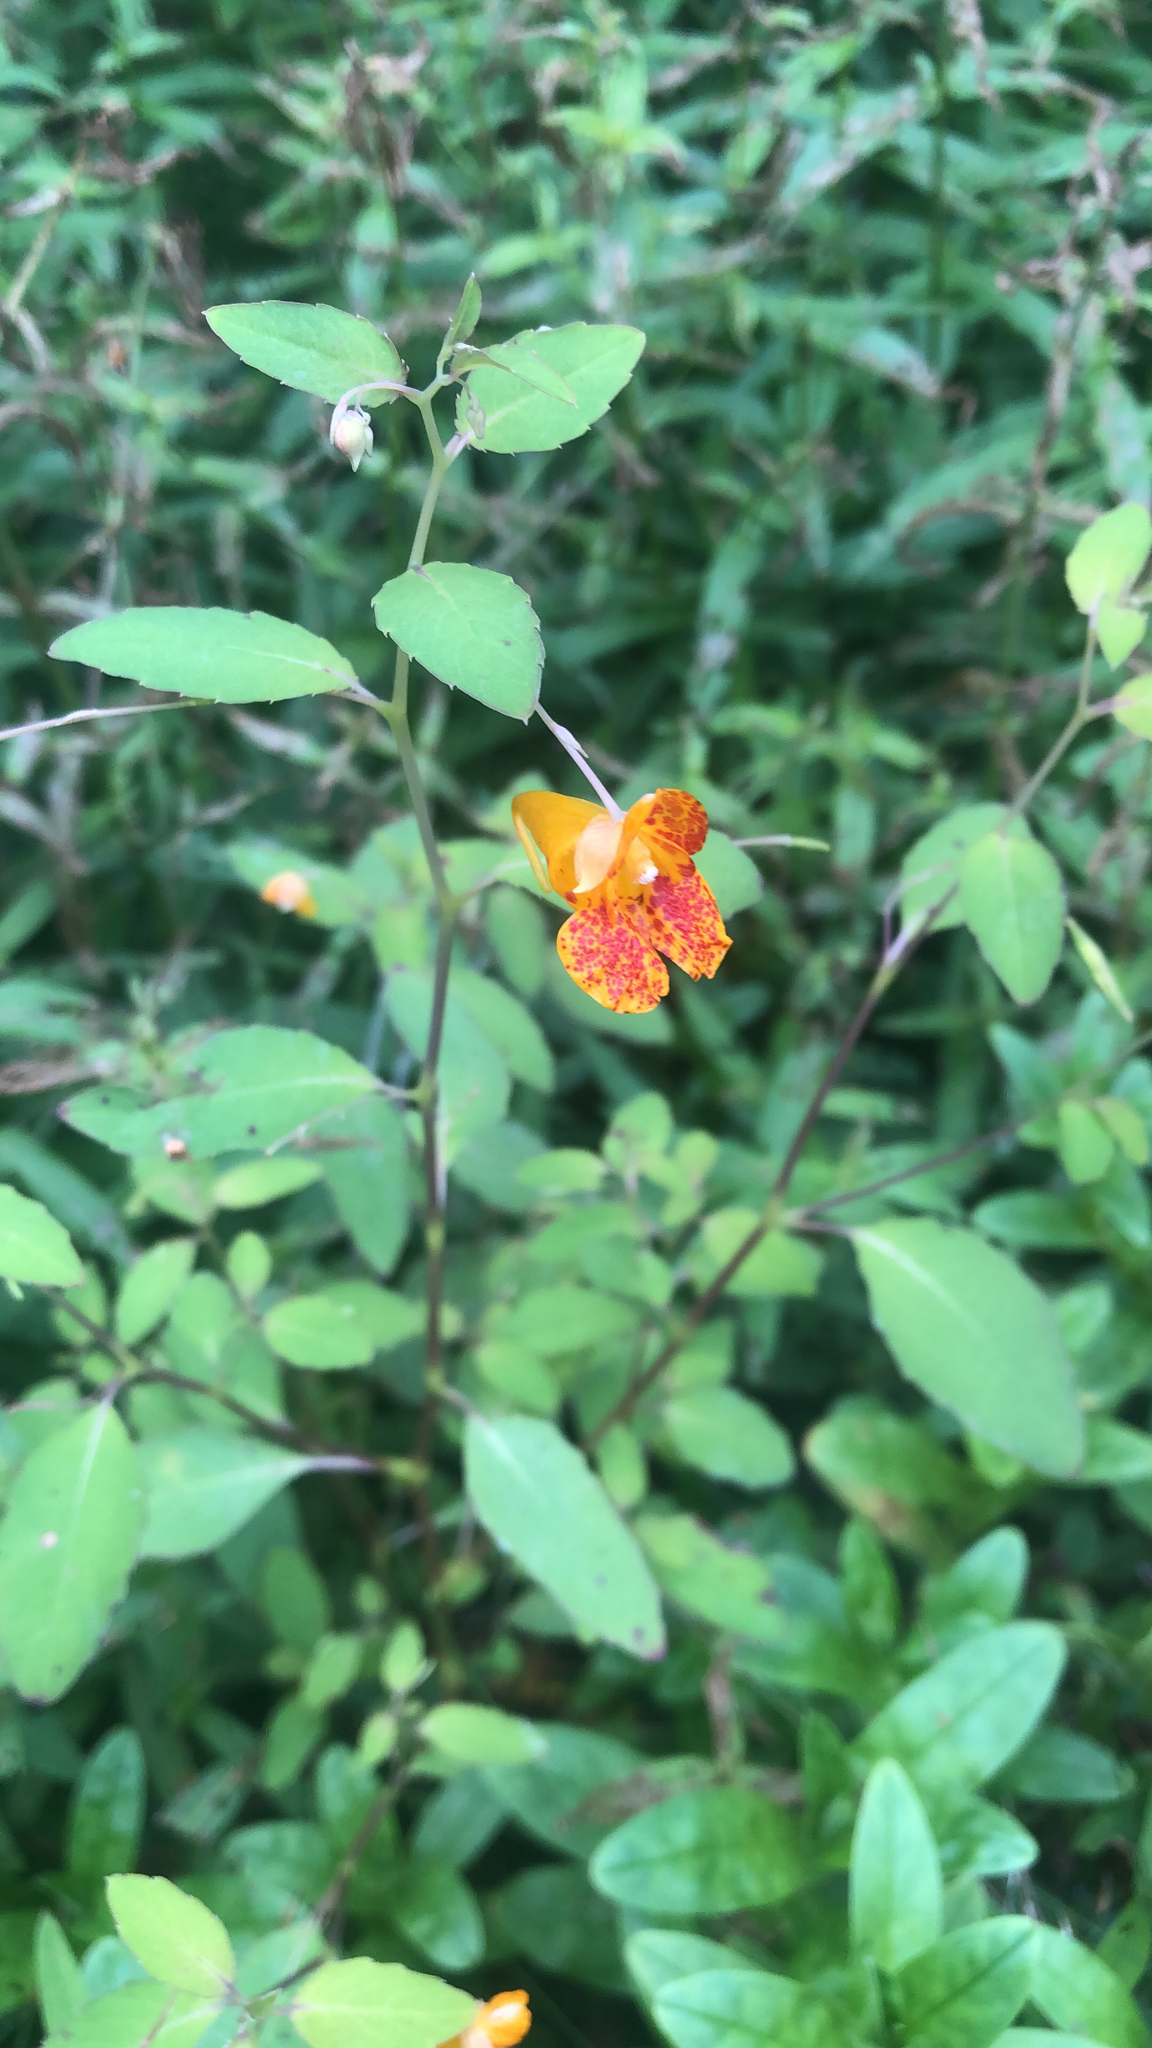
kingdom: Plantae
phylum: Tracheophyta
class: Magnoliopsida
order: Ericales
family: Balsaminaceae
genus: Impatiens
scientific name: Impatiens capensis
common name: Orange balsam
